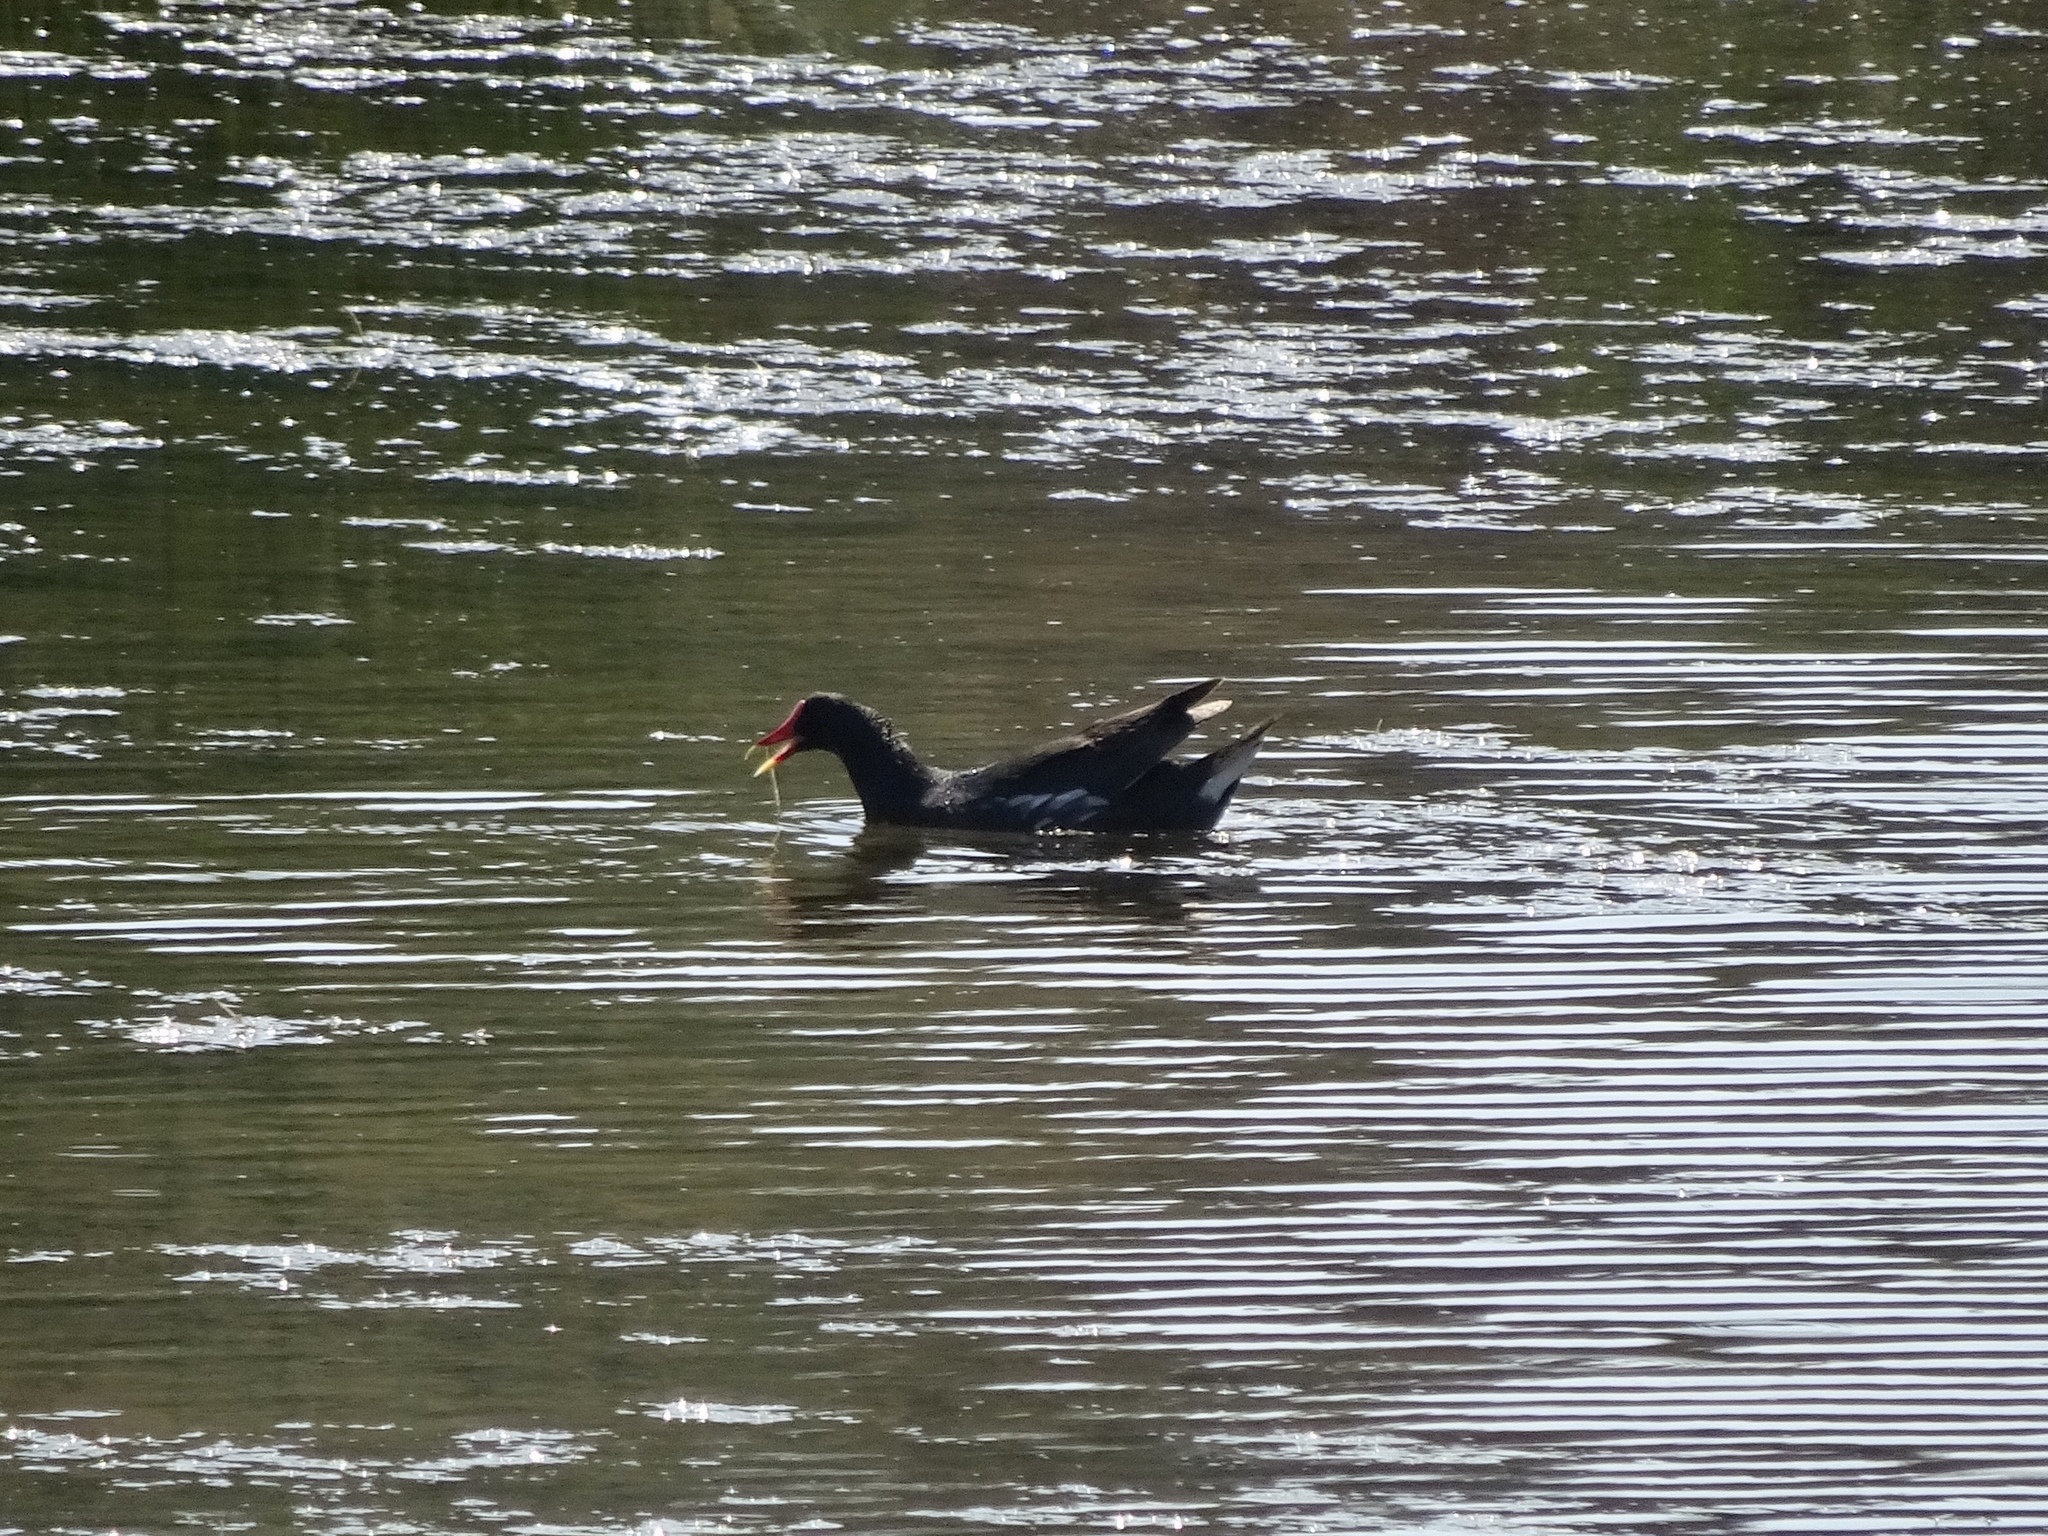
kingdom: Animalia
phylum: Chordata
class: Aves
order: Gruiformes
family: Rallidae
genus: Gallinula
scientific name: Gallinula chloropus
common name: Common moorhen
